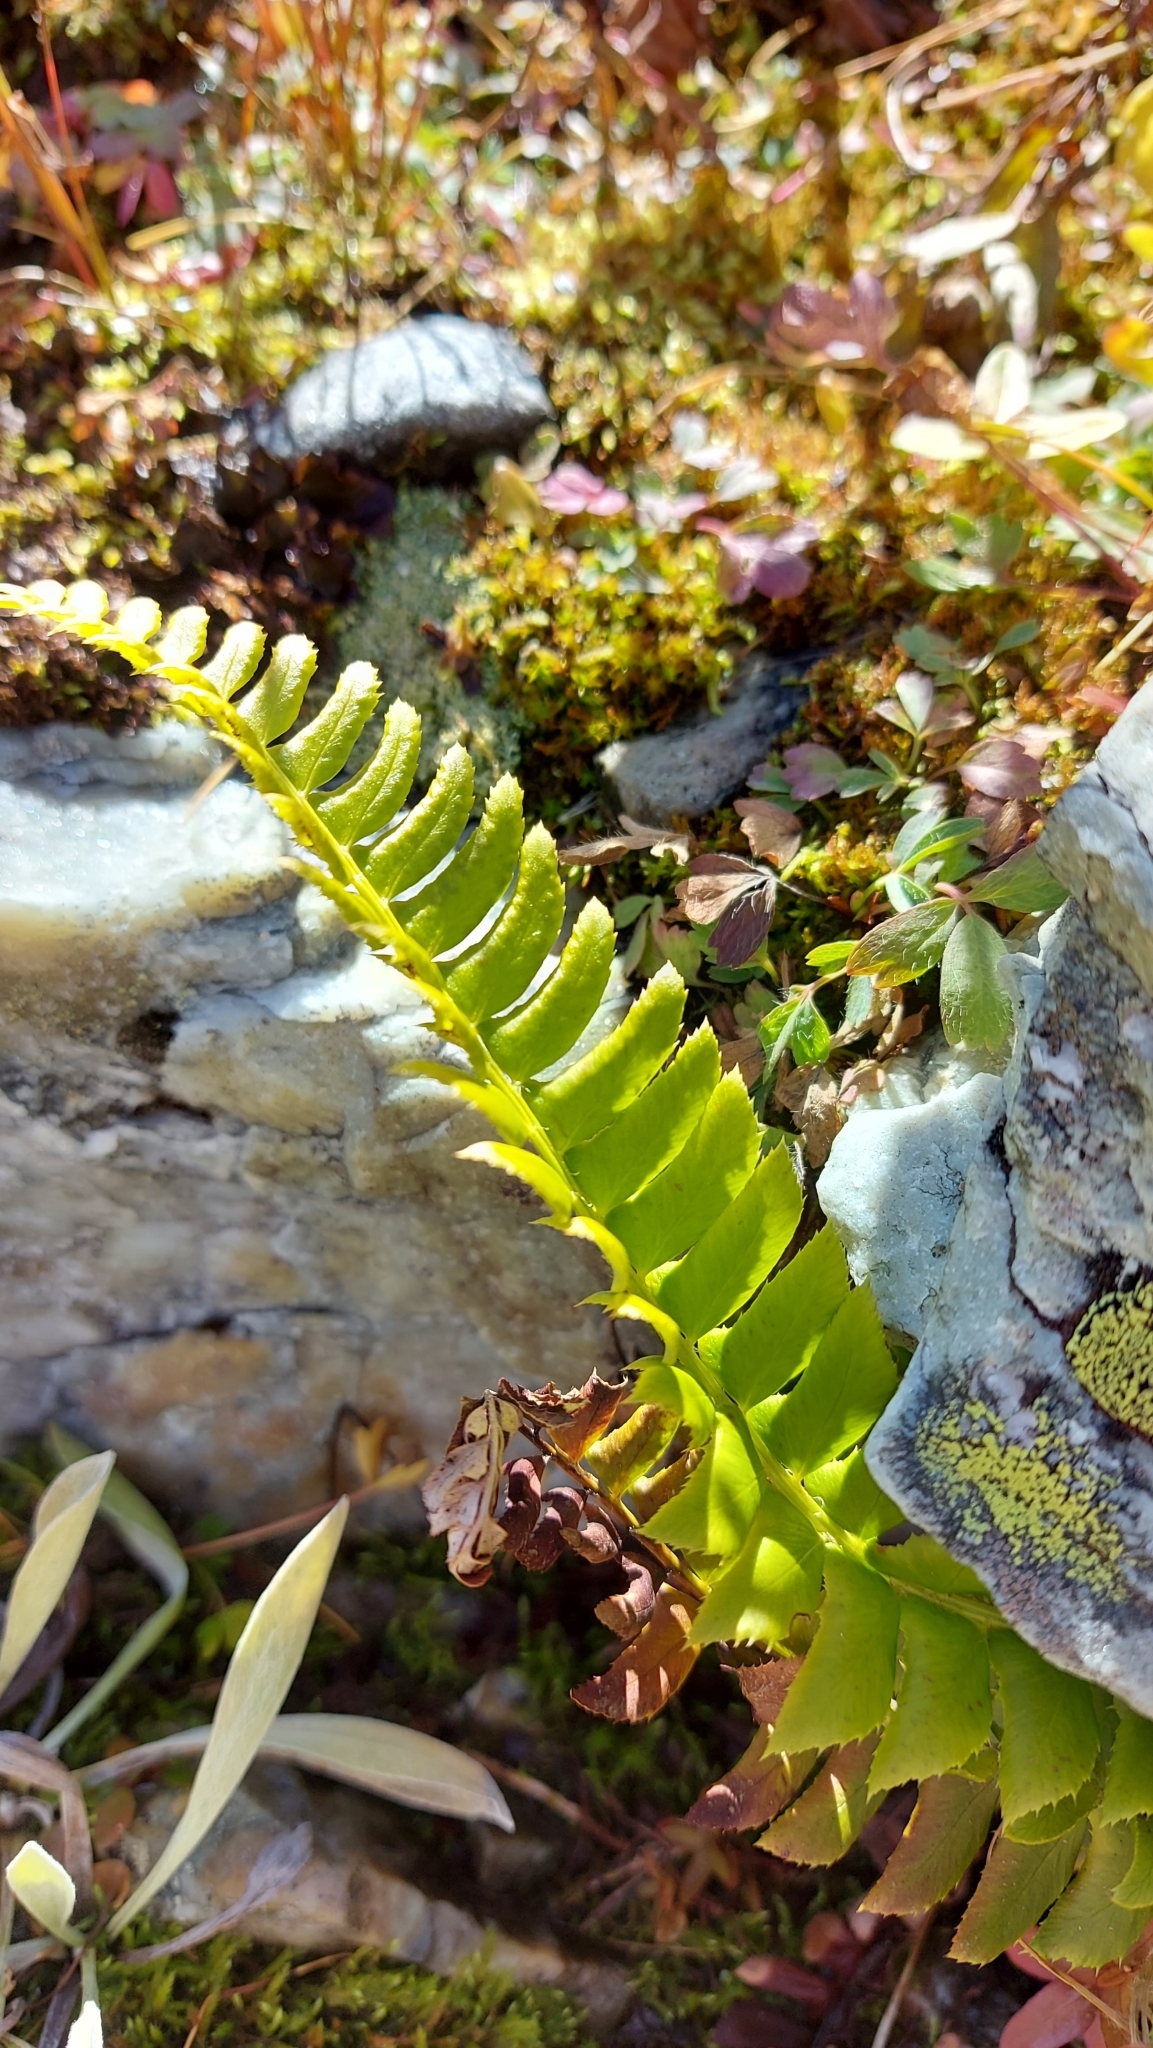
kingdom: Plantae
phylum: Tracheophyta
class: Polypodiopsida
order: Polypodiales
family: Dryopteridaceae
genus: Polystichum
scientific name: Polystichum lonchitis
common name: Holly fern
